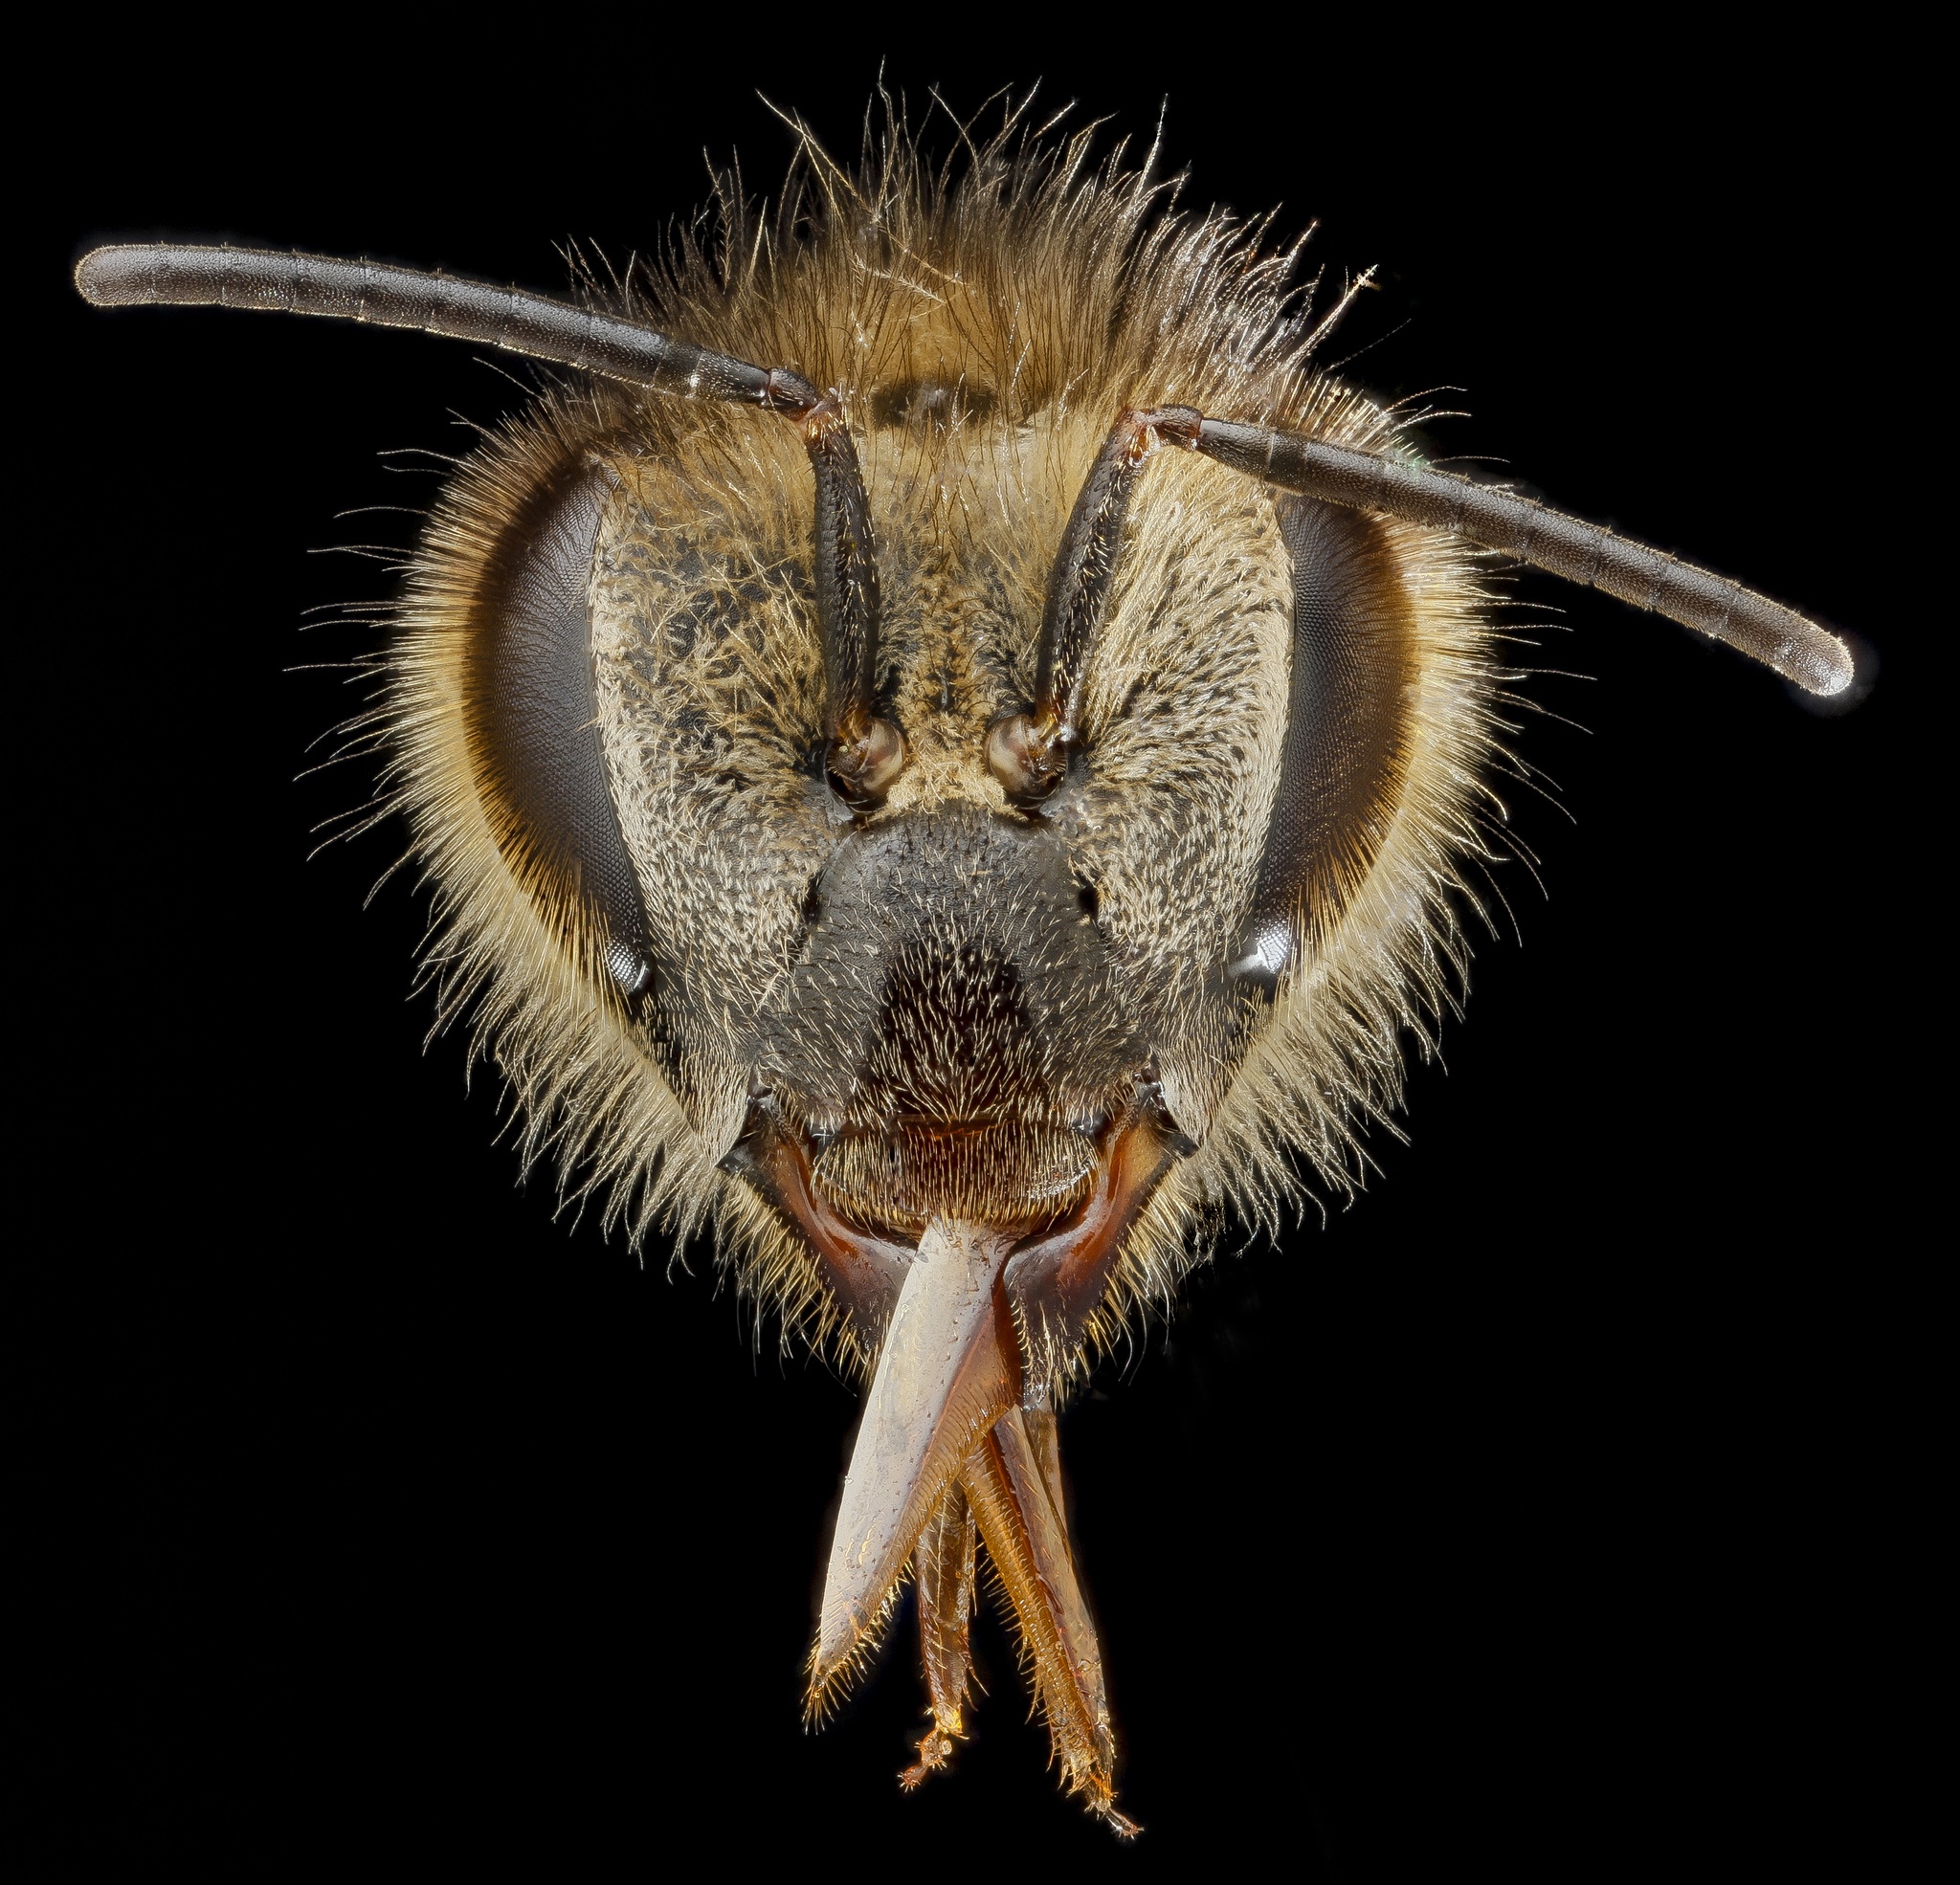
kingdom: Animalia
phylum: Arthropoda
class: Insecta
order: Hymenoptera
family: Apidae
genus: Apis
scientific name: Apis mellifera
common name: Honey bee
